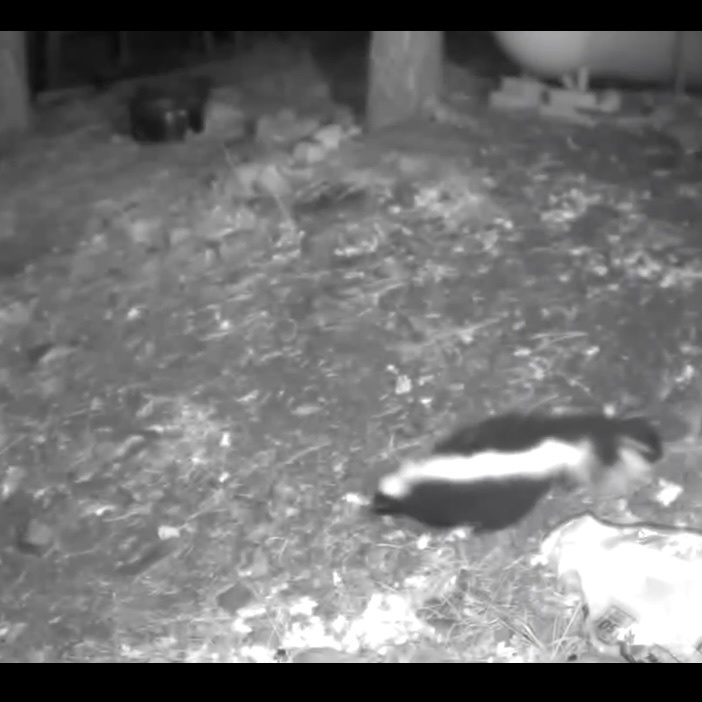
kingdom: Animalia
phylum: Chordata
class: Mammalia
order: Carnivora
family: Mephitidae
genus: Mephitis
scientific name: Mephitis mephitis
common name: Striped skunk
